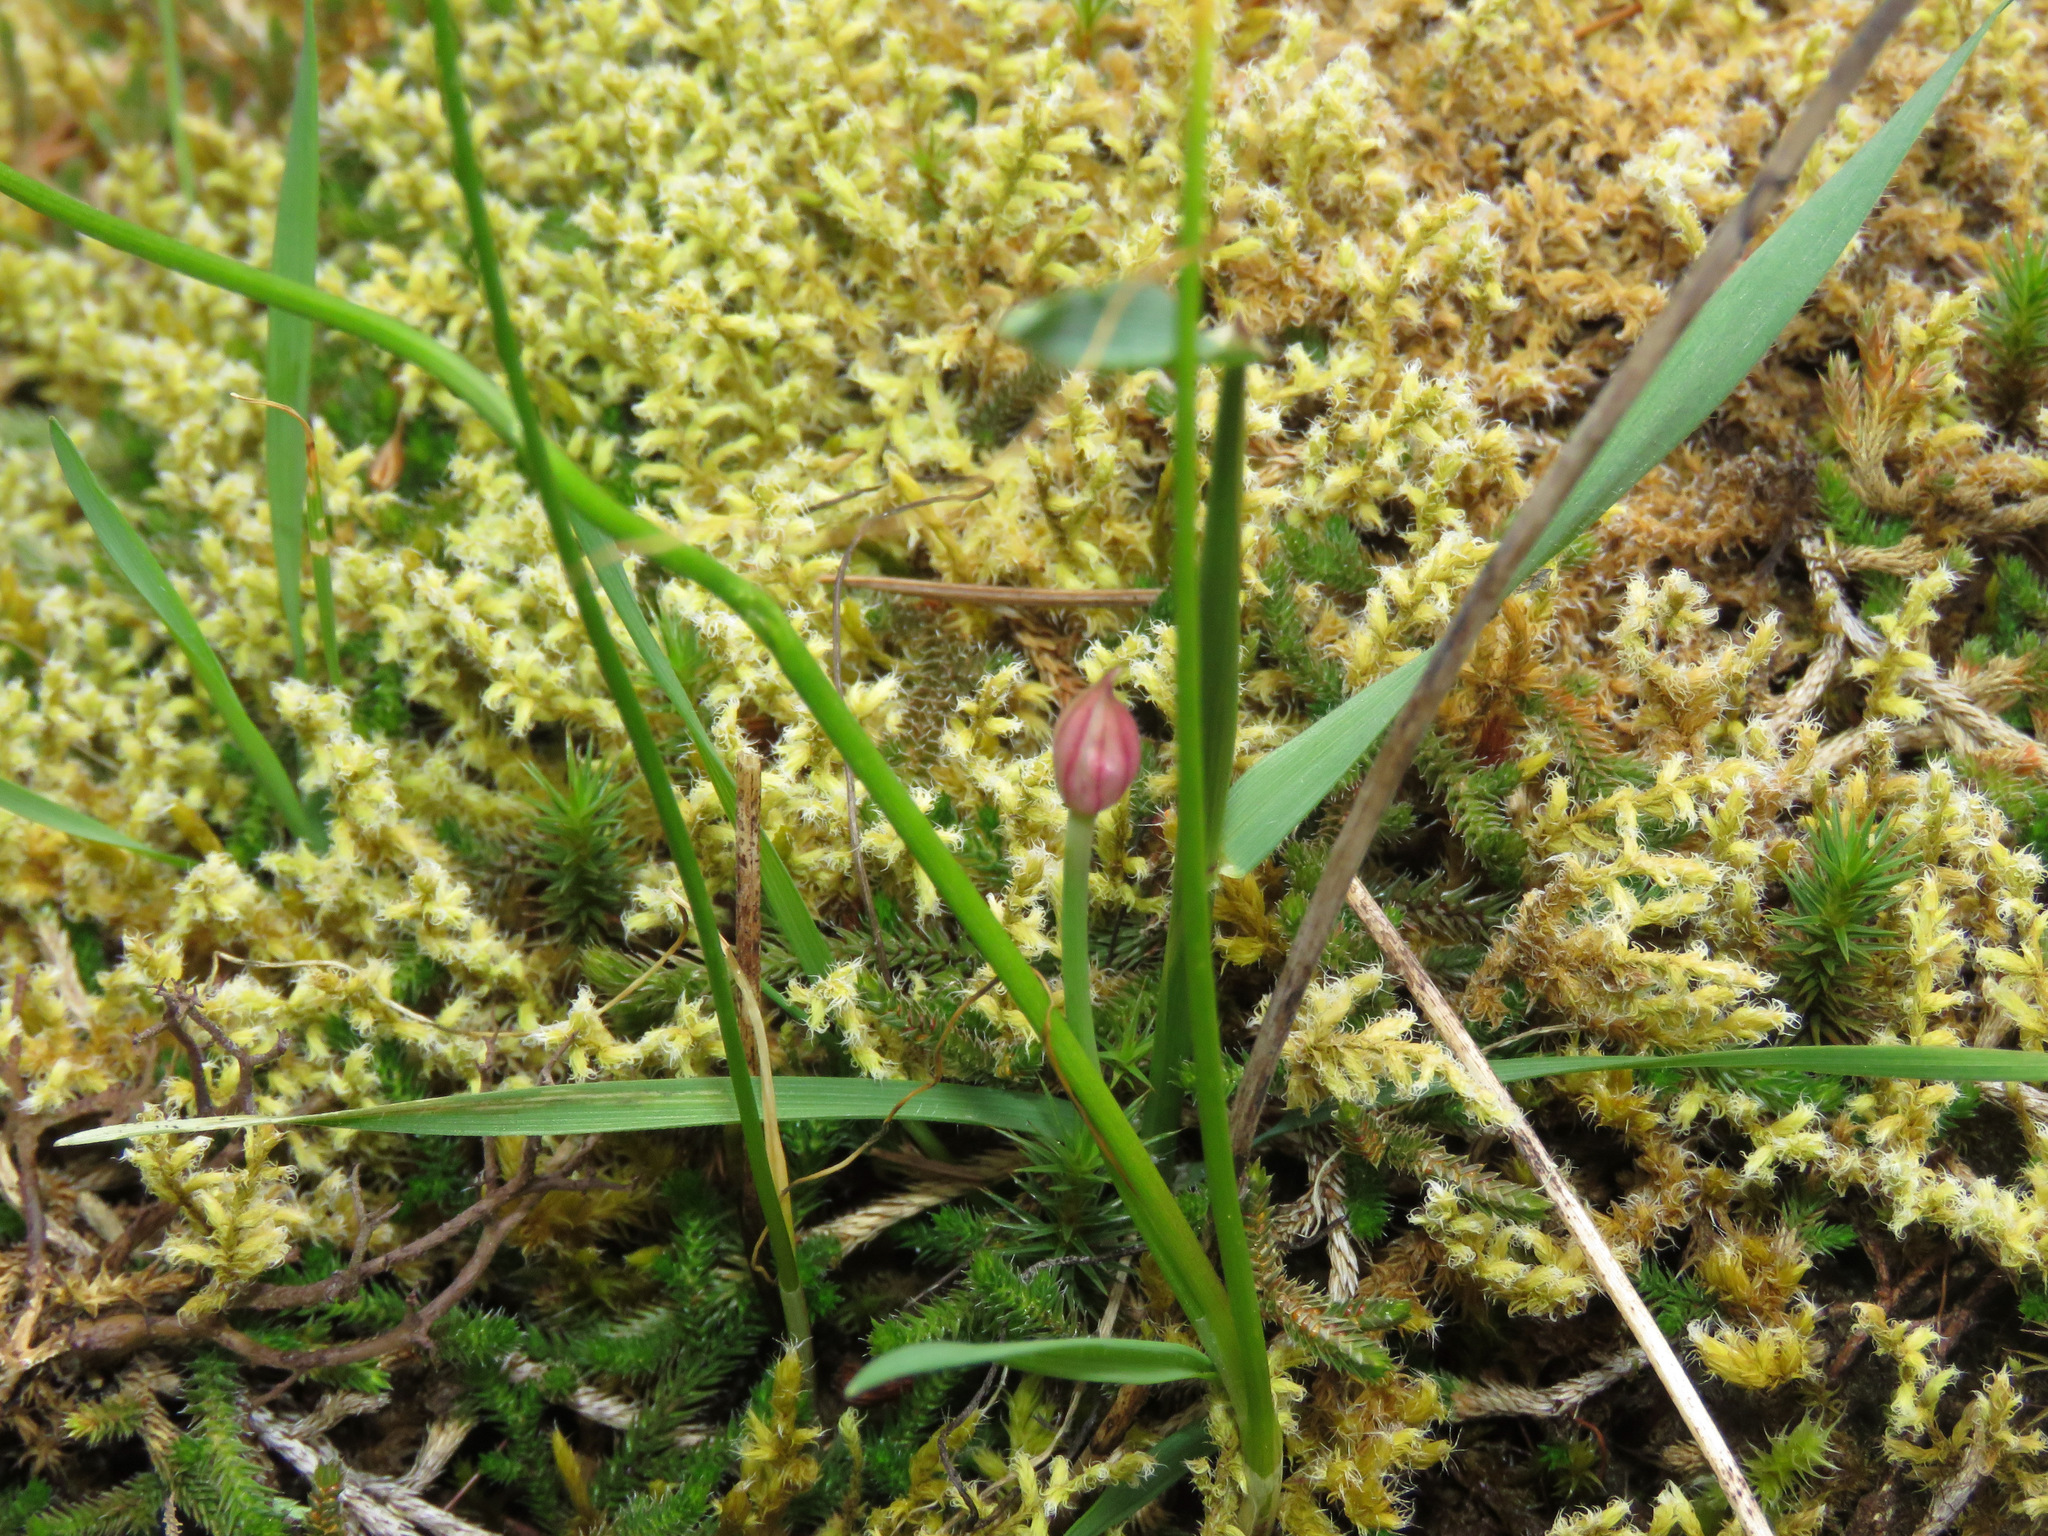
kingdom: Plantae
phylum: Tracheophyta
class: Liliopsida
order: Asparagales
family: Amaryllidaceae
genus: Allium
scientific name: Allium amplectens
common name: Narrow-leaved onion
